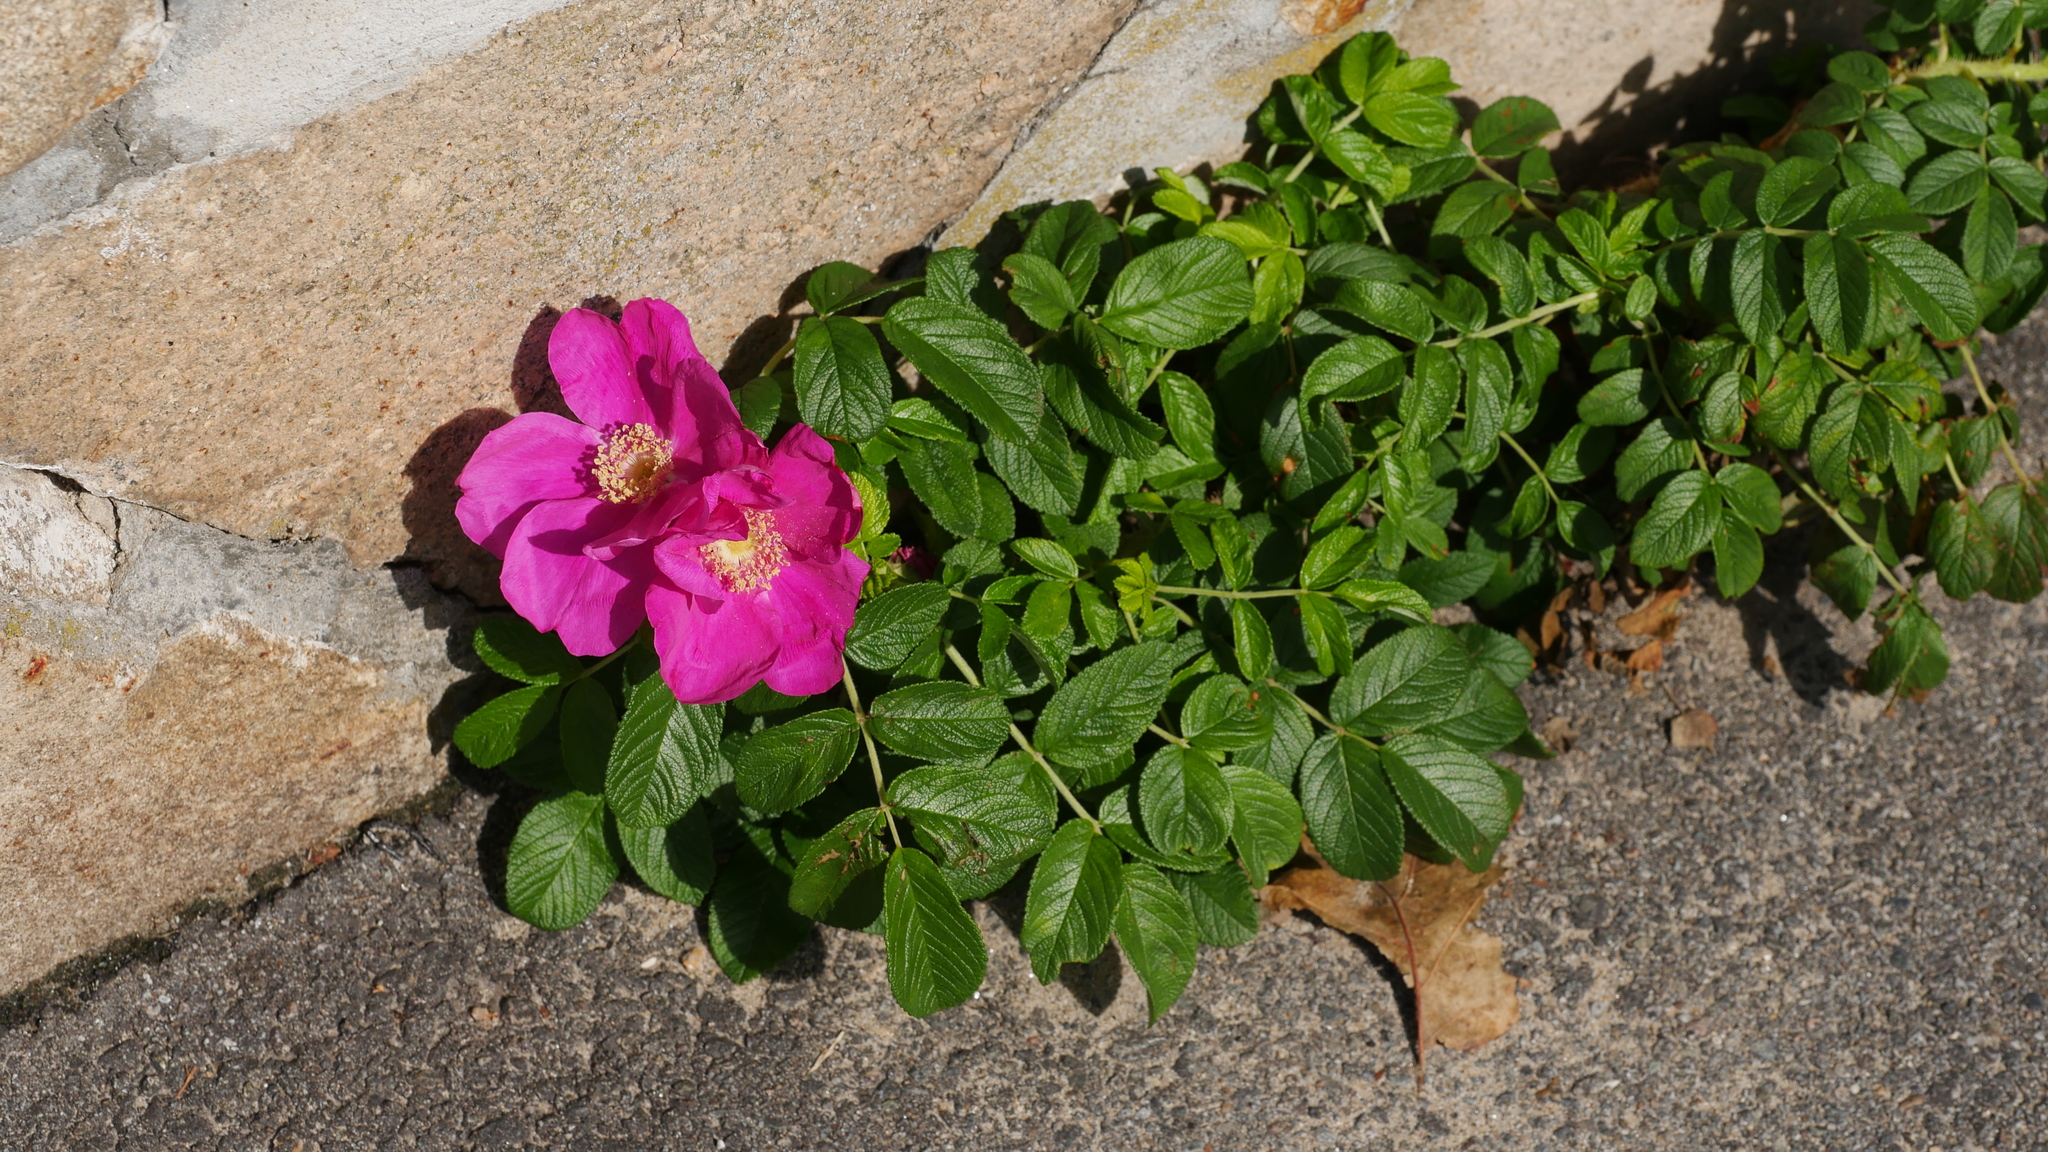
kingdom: Plantae
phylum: Tracheophyta
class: Magnoliopsida
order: Rosales
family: Rosaceae
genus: Rosa
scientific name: Rosa rugosa
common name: Japanese rose
